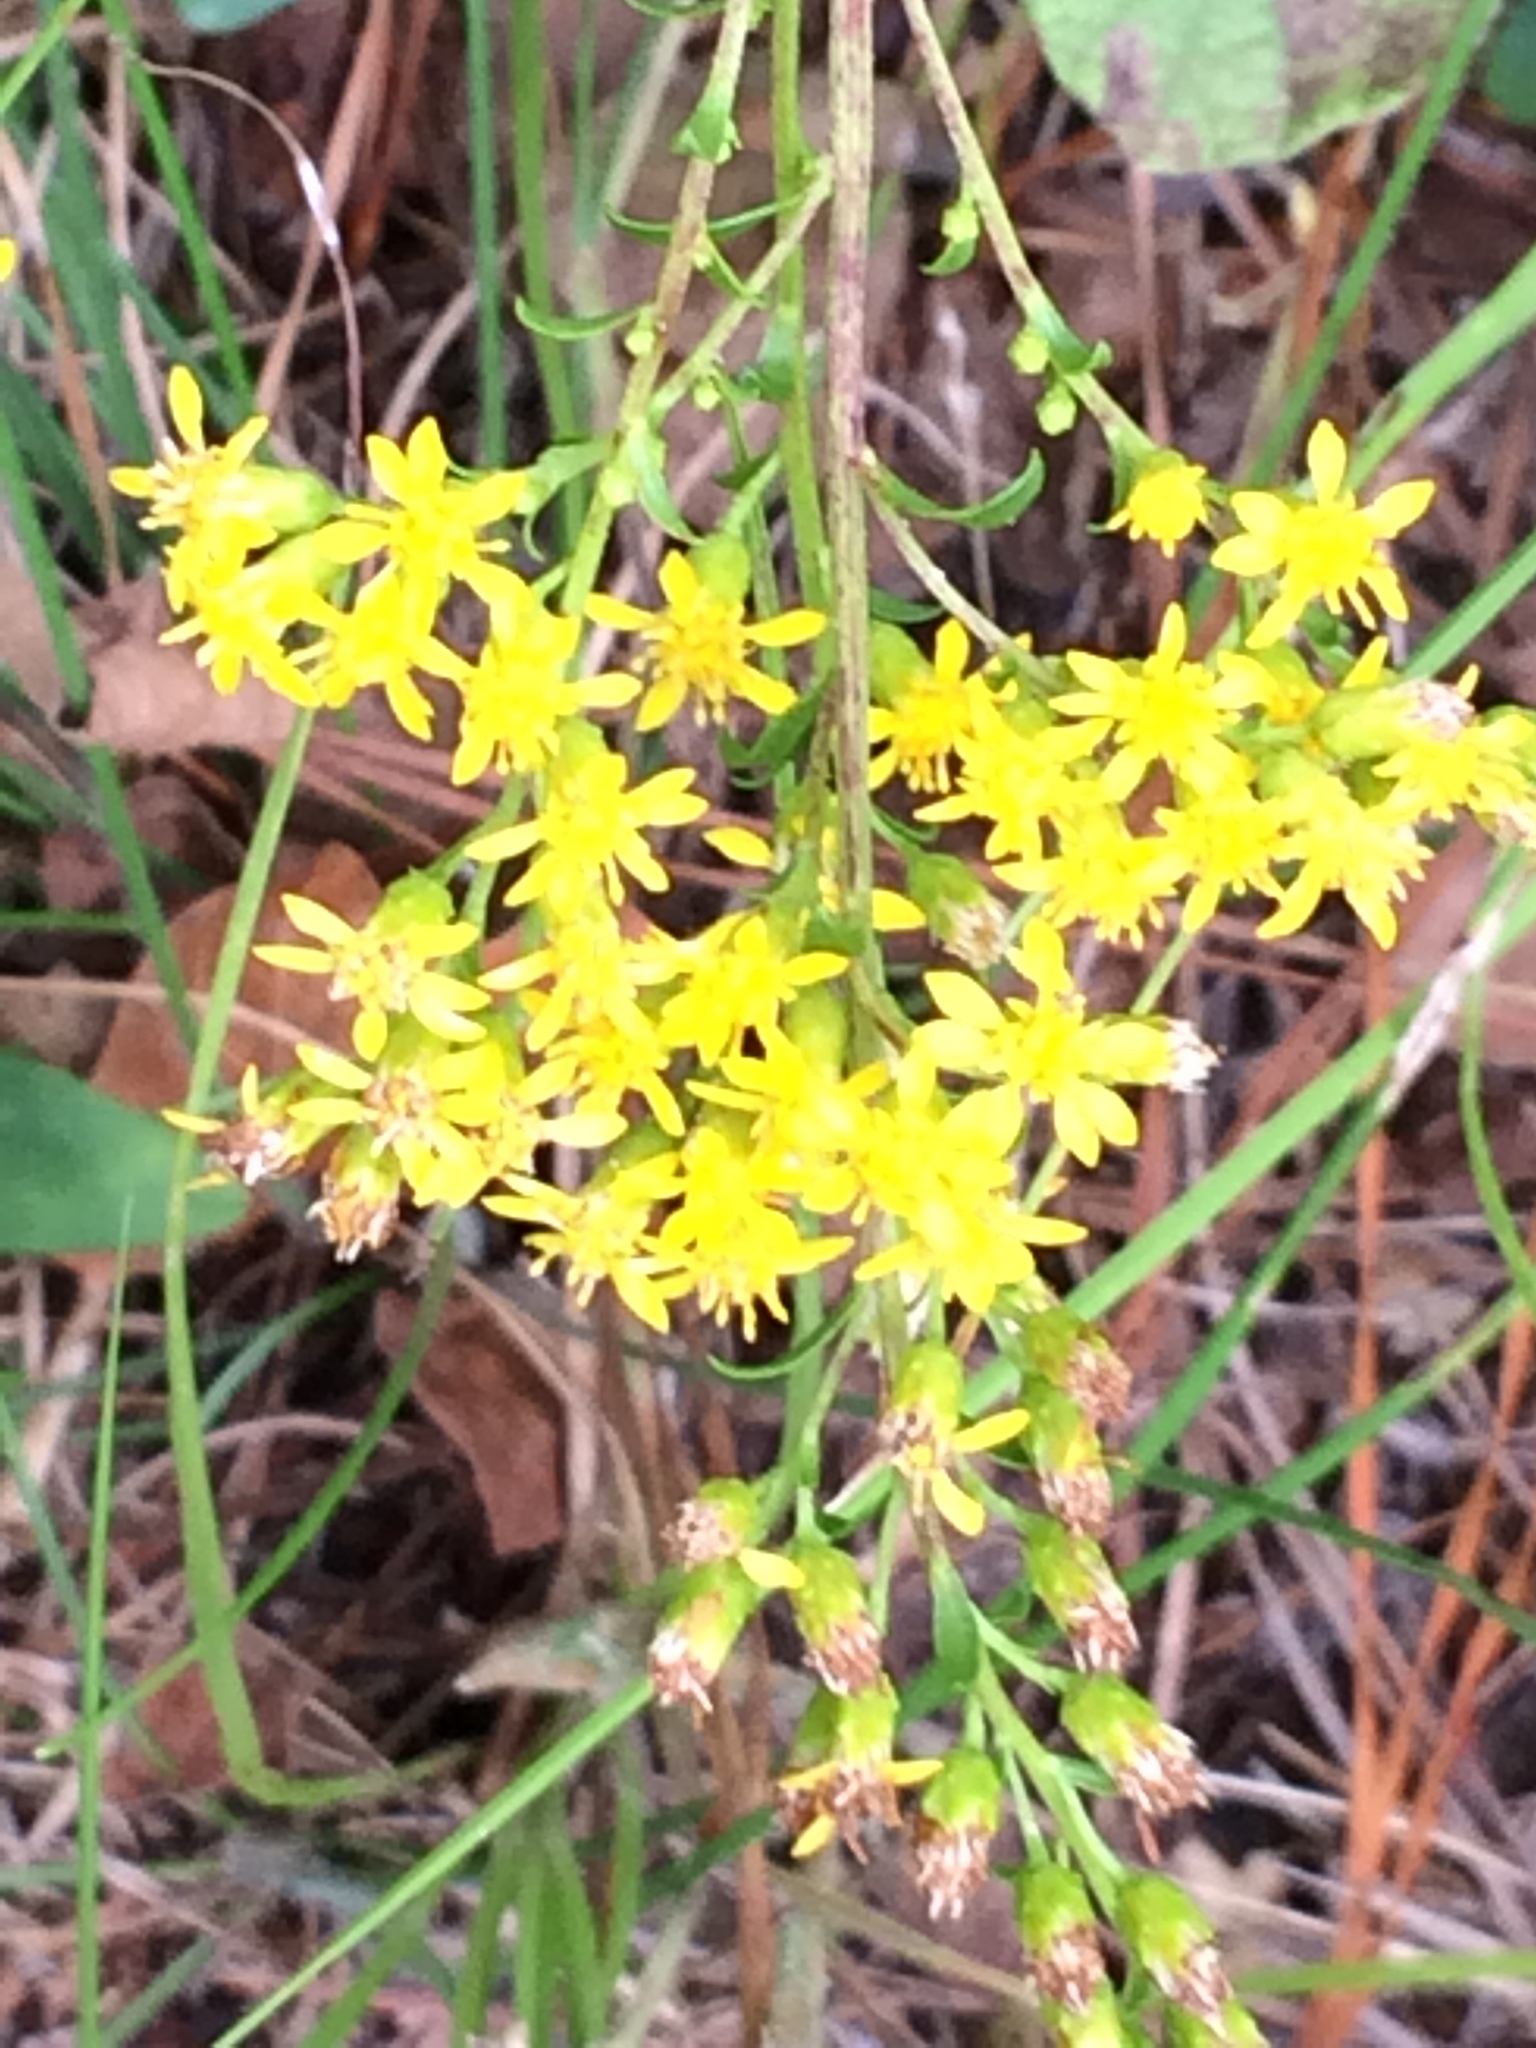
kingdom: Plantae
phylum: Tracheophyta
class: Magnoliopsida
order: Asterales
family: Asteraceae
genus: Solidago
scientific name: Solidago mexicana
